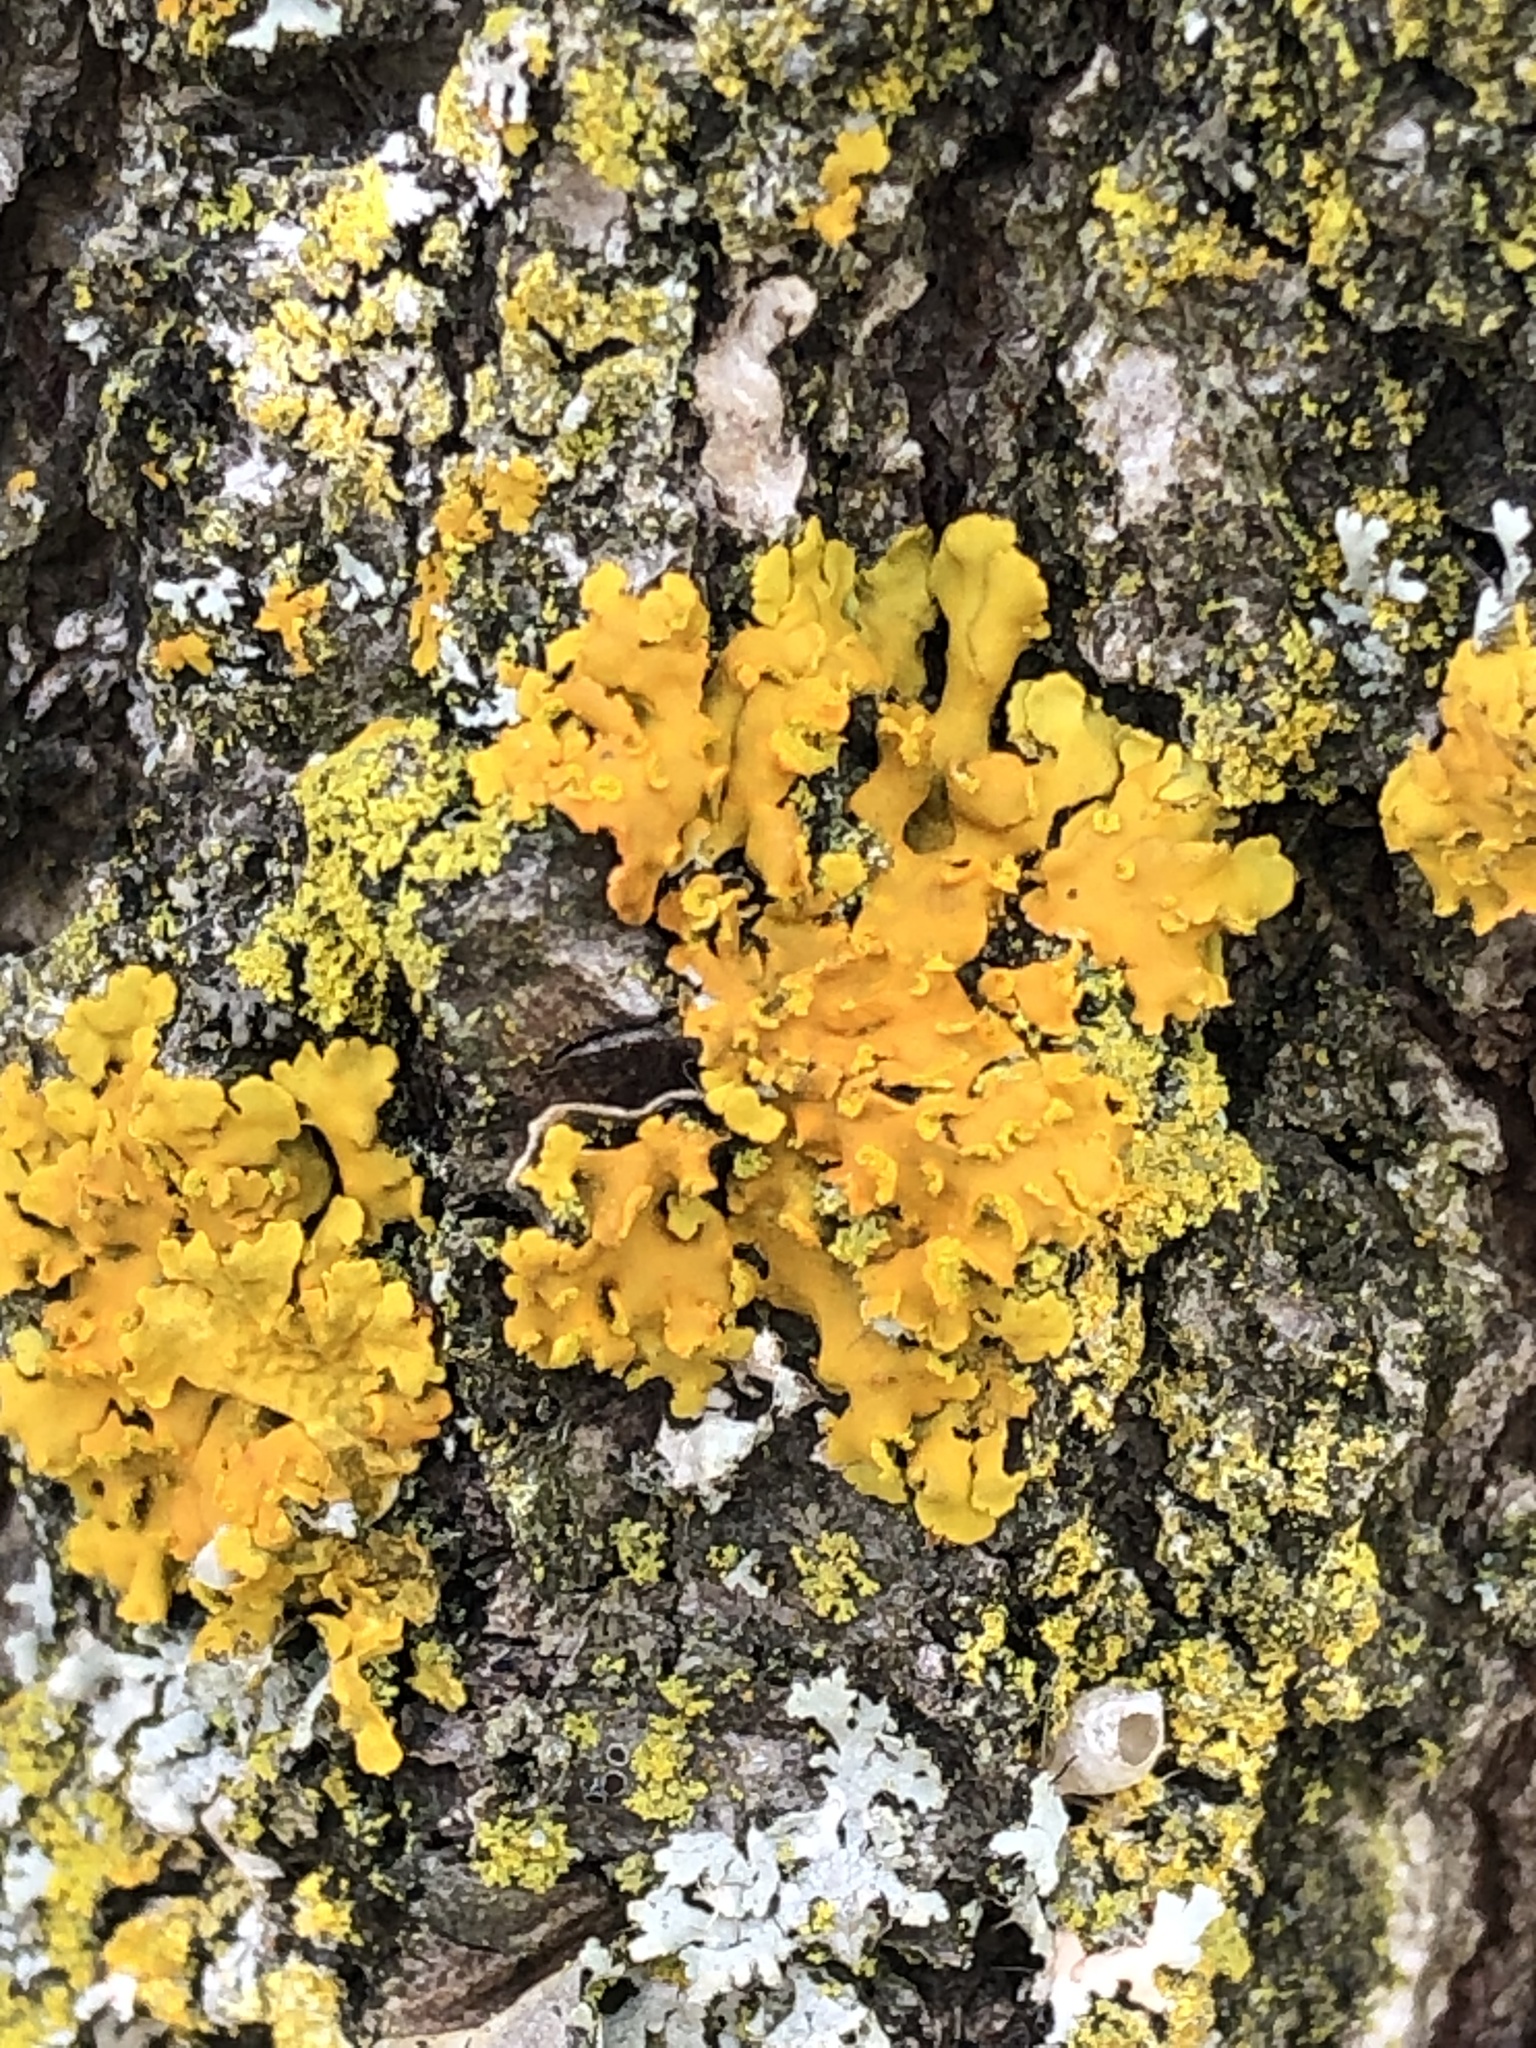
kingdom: Fungi
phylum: Ascomycota
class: Lecanoromycetes
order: Teloschistales
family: Teloschistaceae
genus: Oxneria
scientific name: Oxneria fallax
